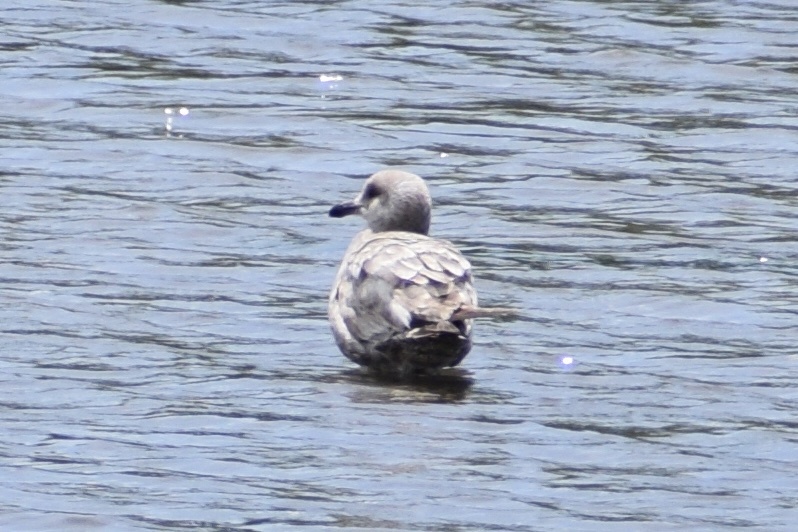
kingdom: Animalia
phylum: Chordata
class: Aves
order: Charadriiformes
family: Laridae
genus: Larus
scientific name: Larus argentatus
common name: Herring gull
